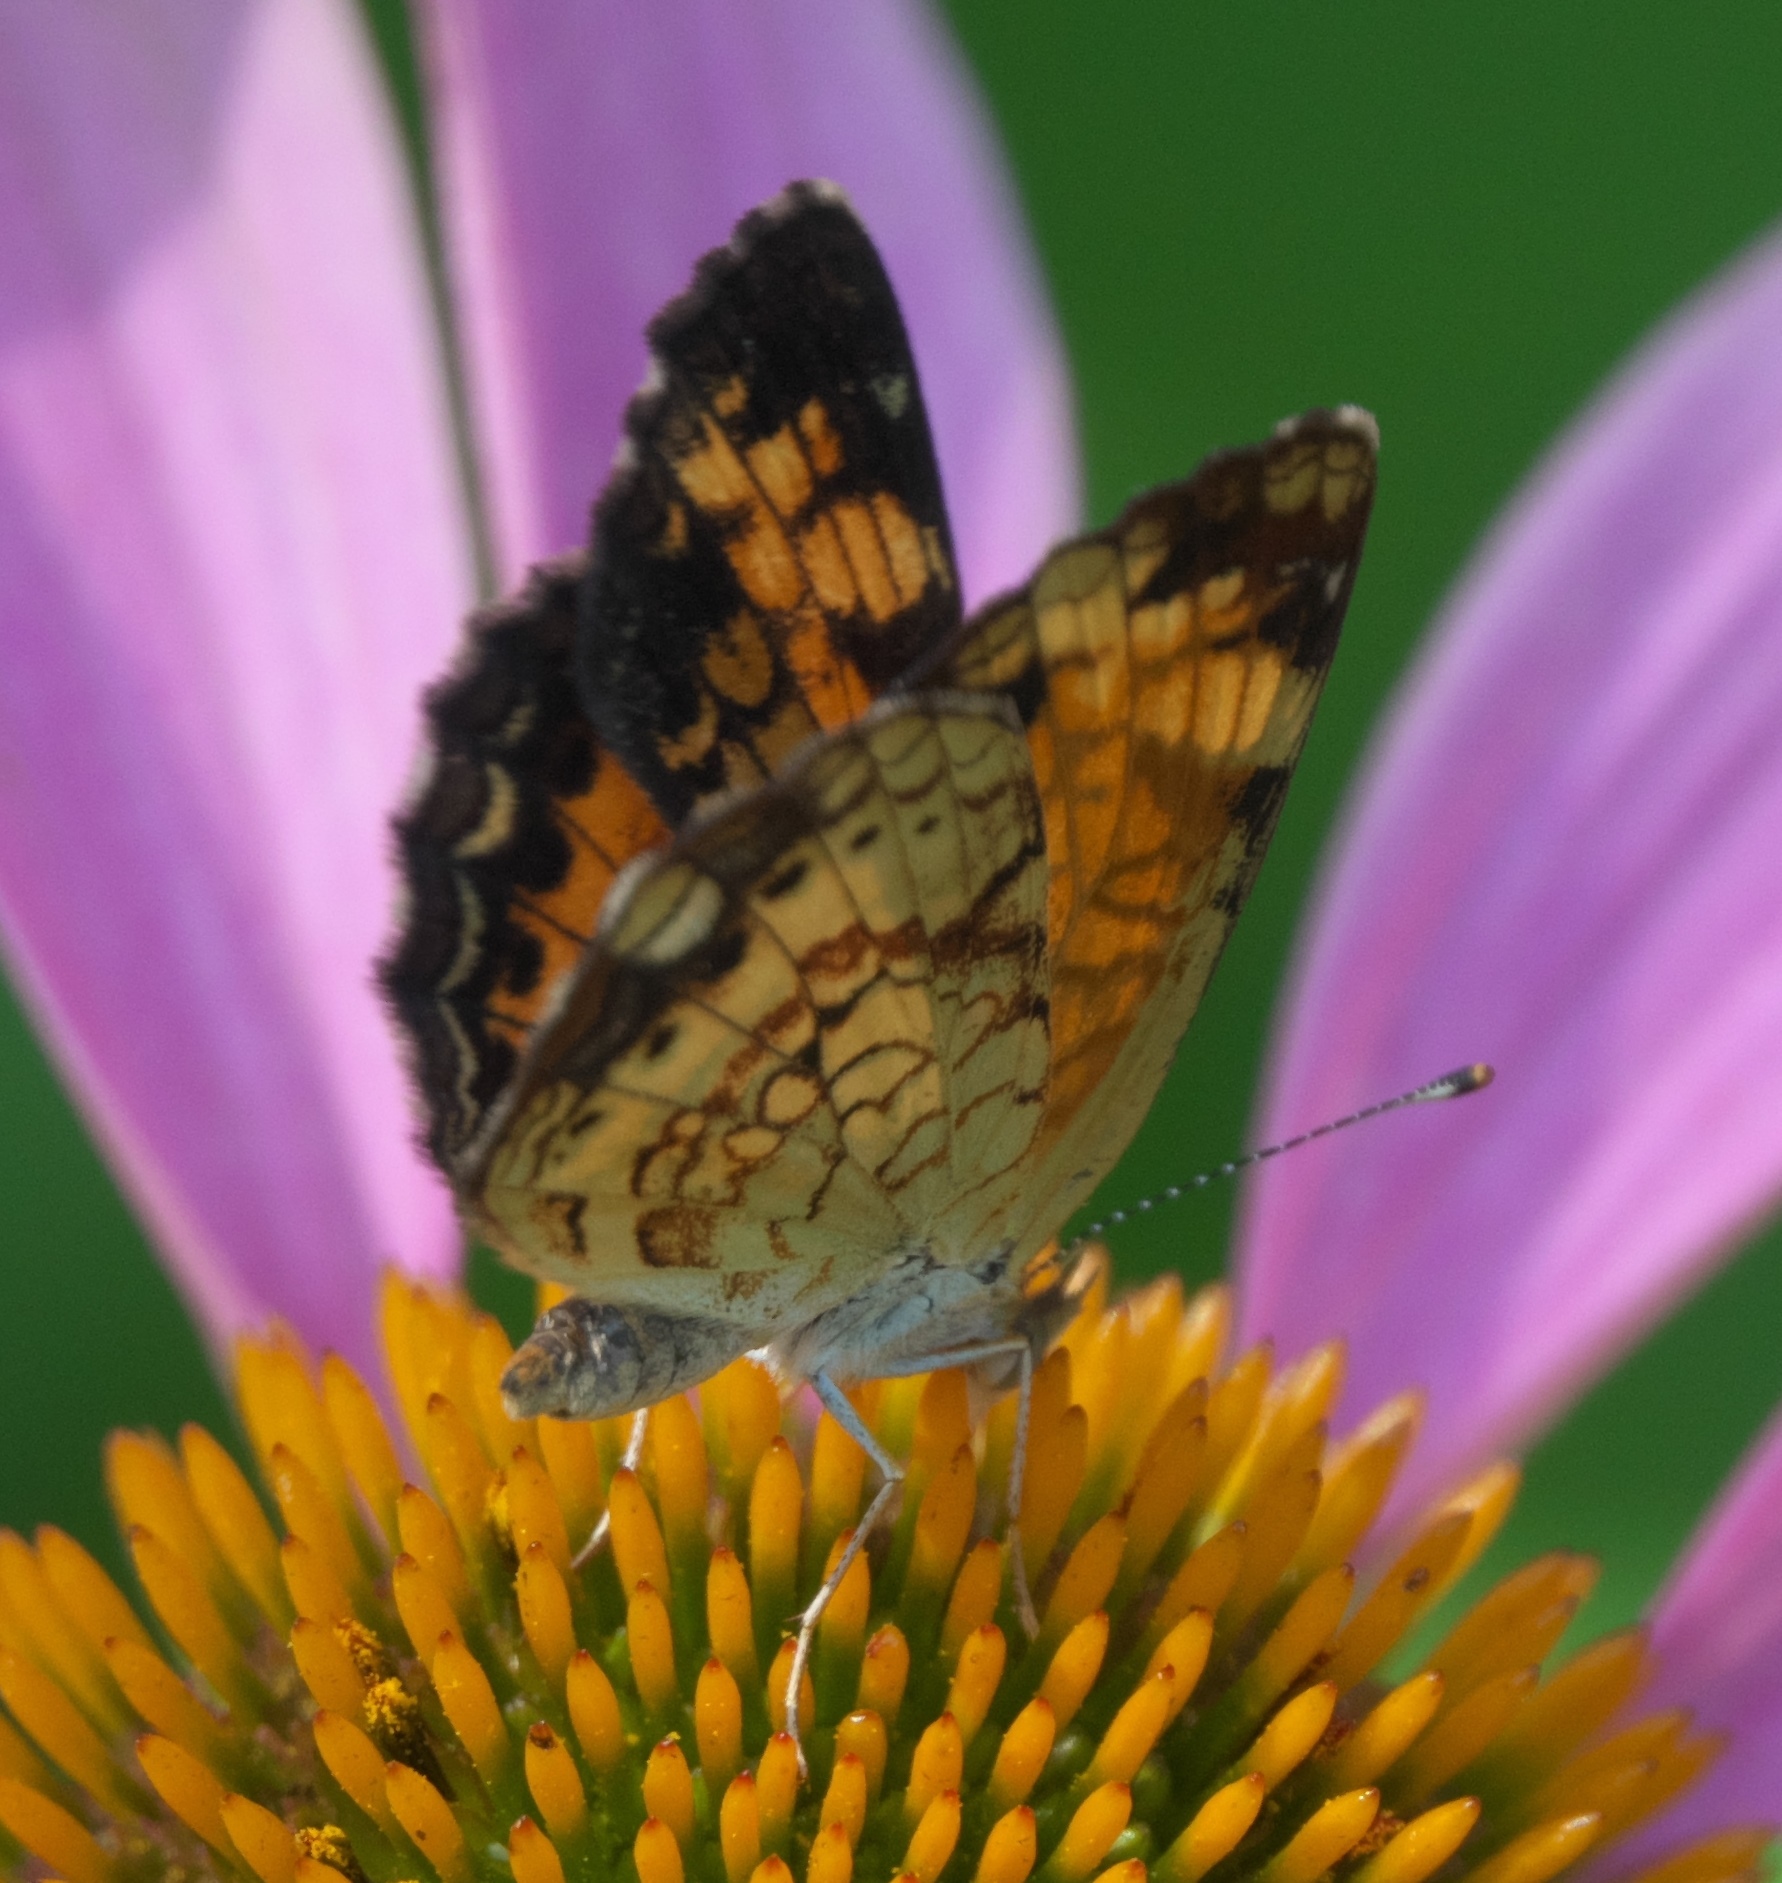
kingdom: Animalia
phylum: Arthropoda
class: Insecta
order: Lepidoptera
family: Nymphalidae
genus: Phyciodes
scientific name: Phyciodes tharos
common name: Pearl crescent
